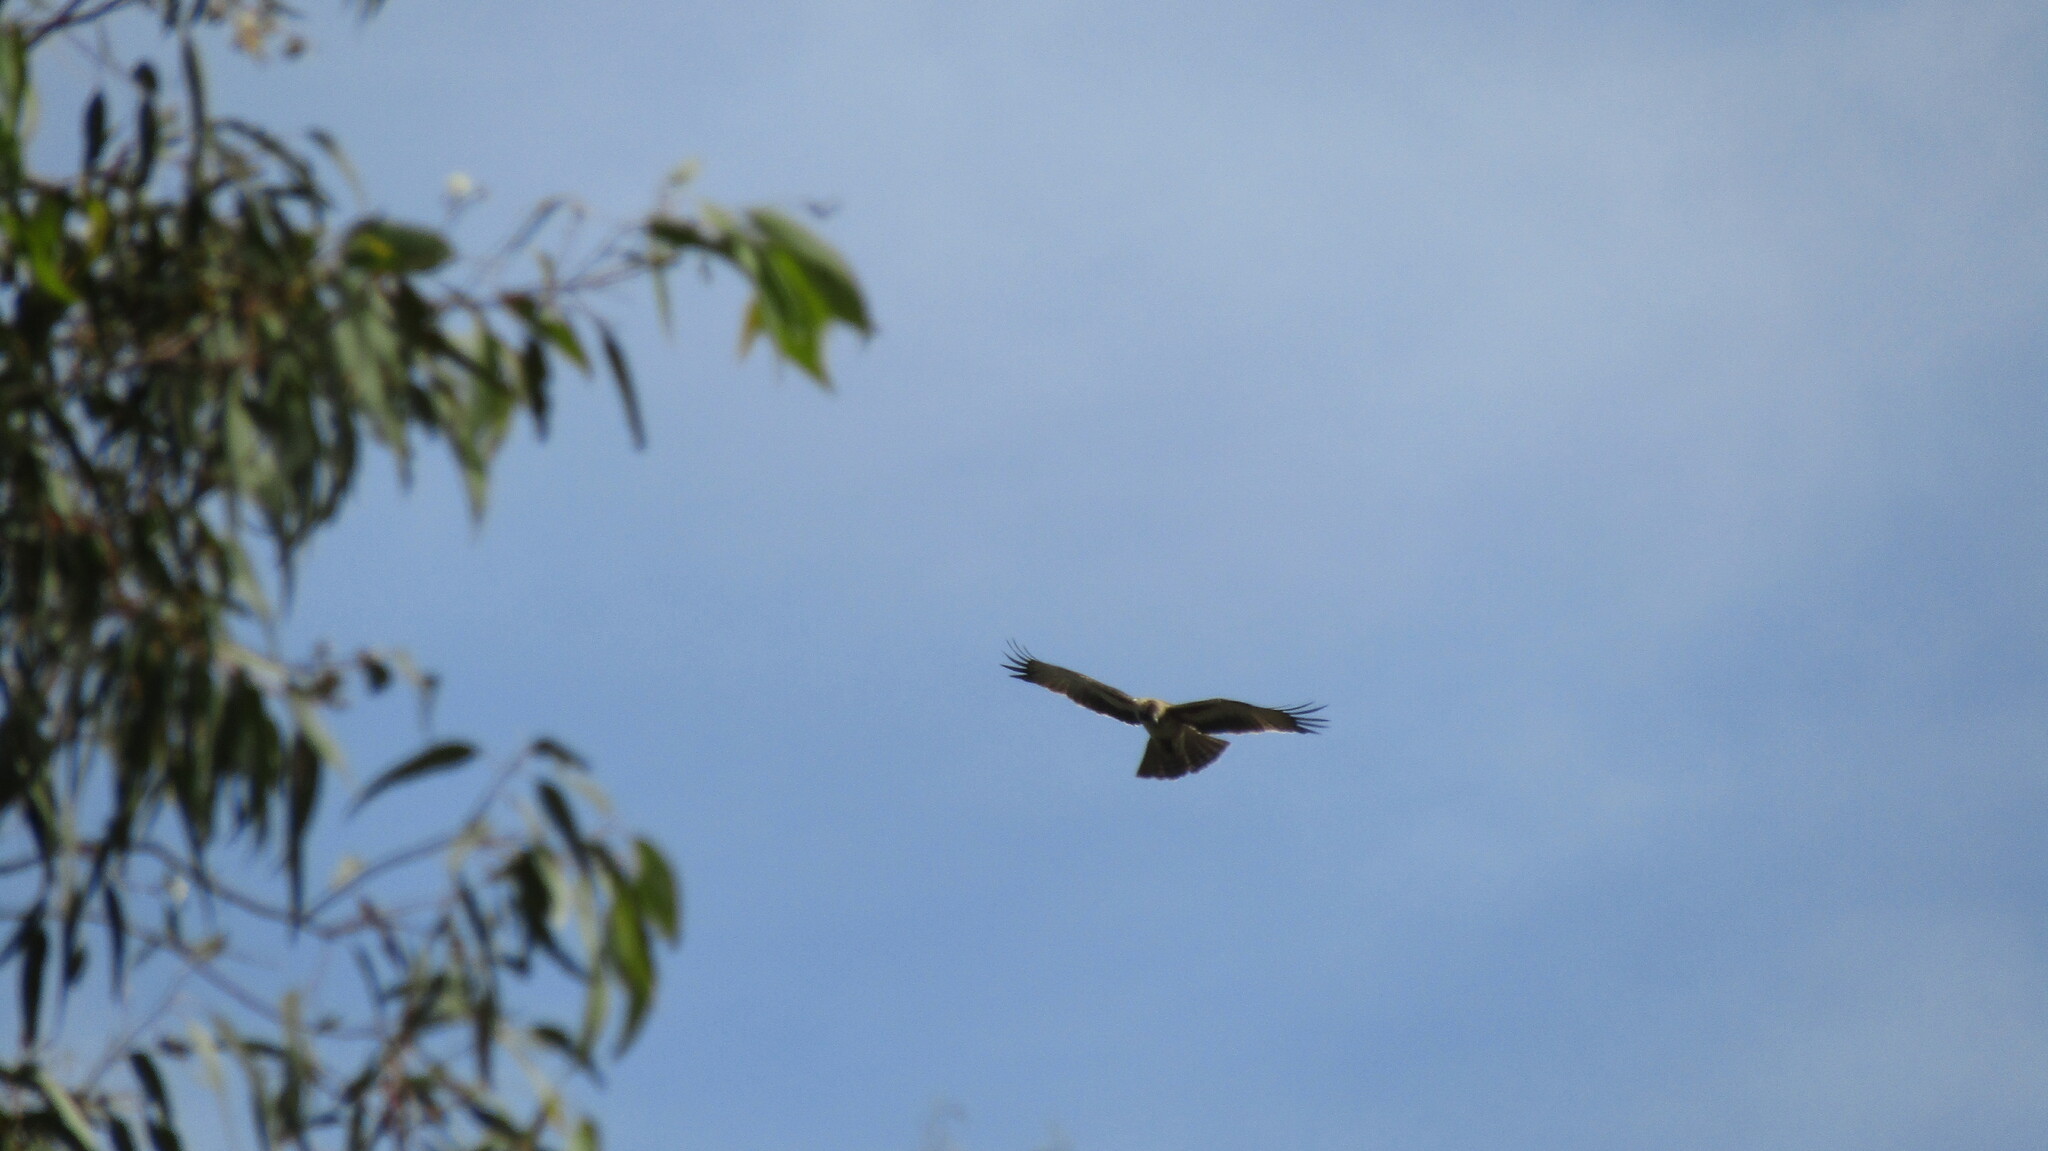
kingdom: Animalia
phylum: Chordata
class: Aves
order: Accipitriformes
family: Accipitridae
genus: Hieraaetus
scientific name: Hieraaetus morphnoides
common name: Little eagle
